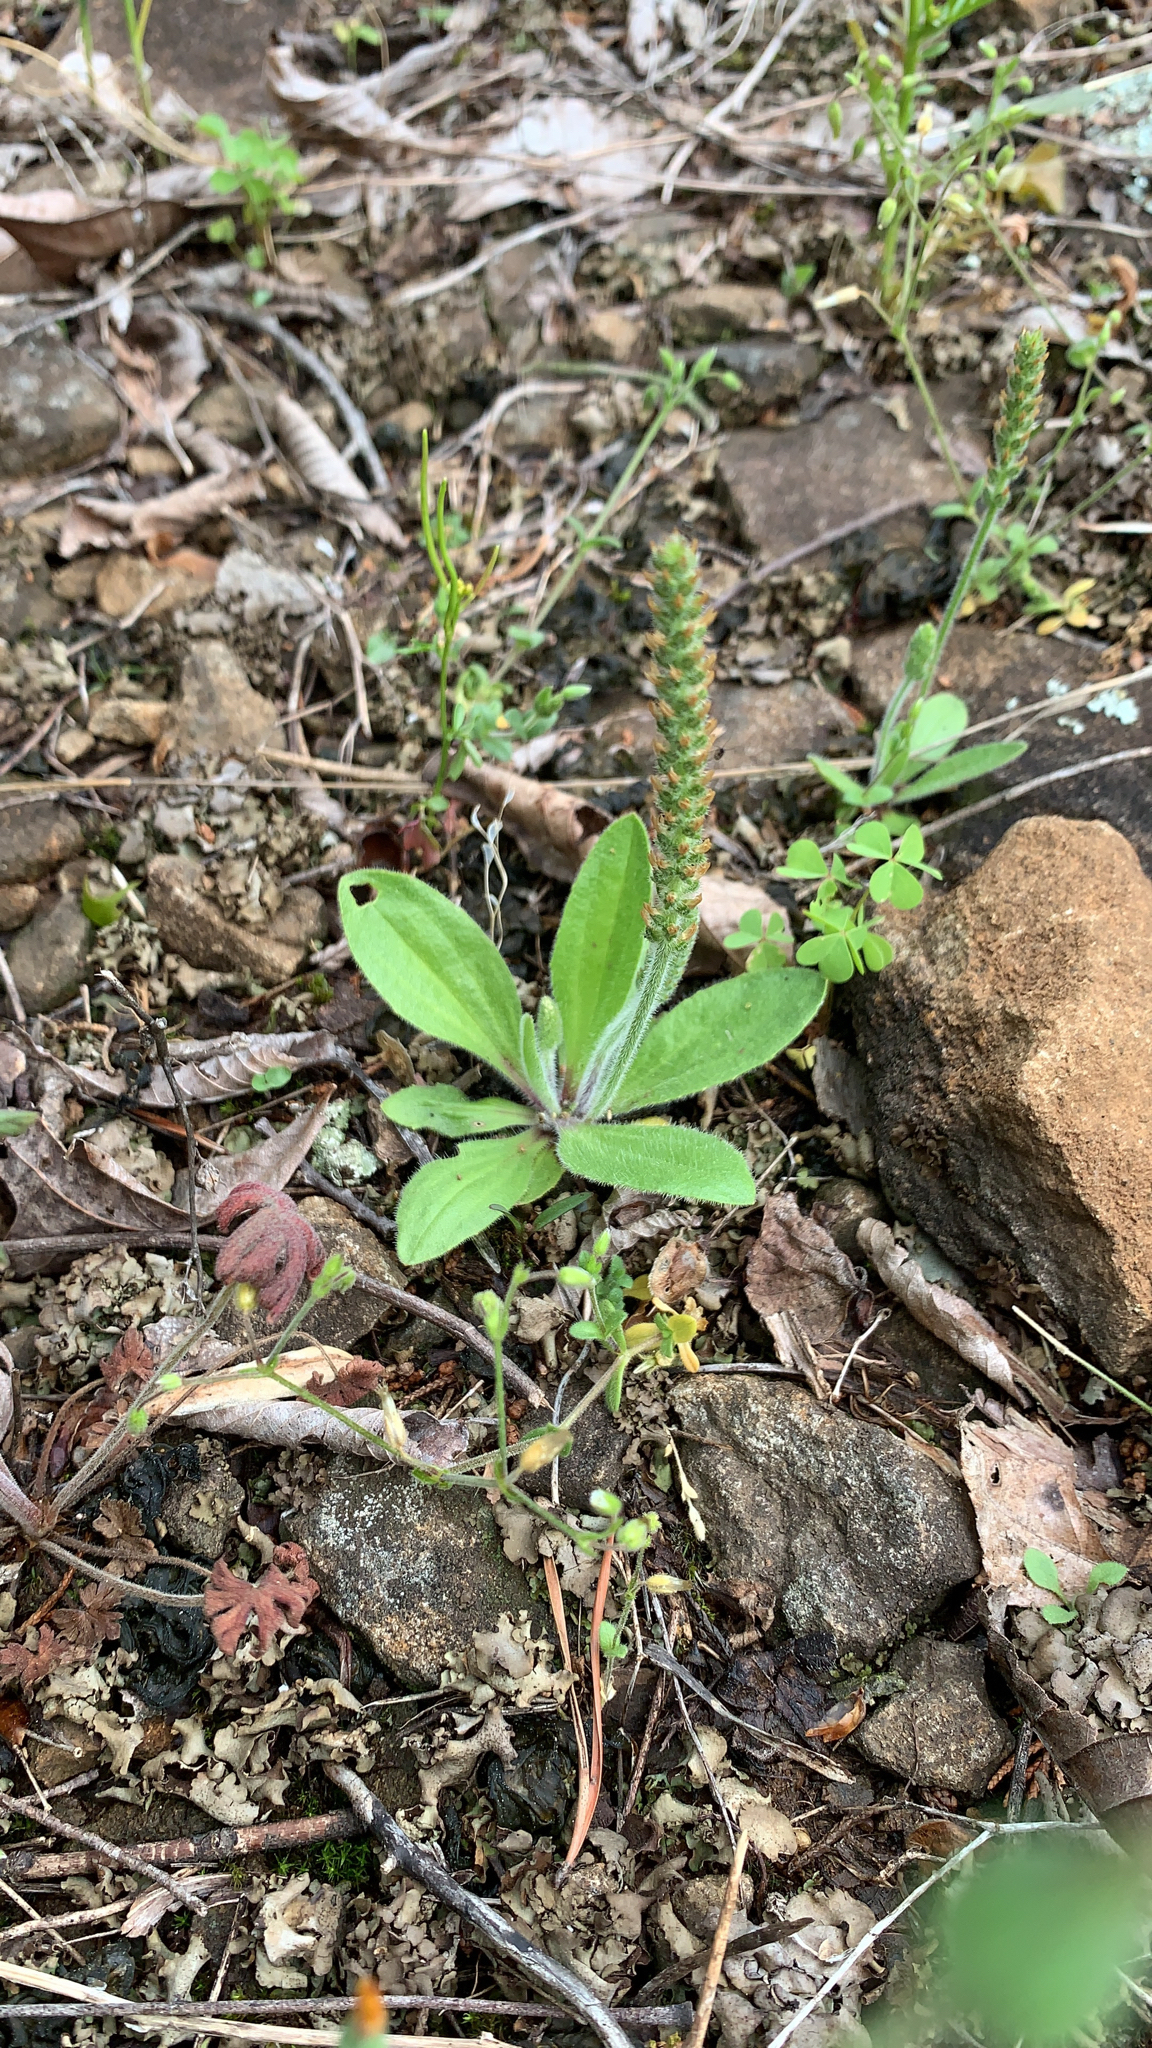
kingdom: Plantae
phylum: Tracheophyta
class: Magnoliopsida
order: Lamiales
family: Plantaginaceae
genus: Plantago
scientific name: Plantago virginica
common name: Hoary plantain
